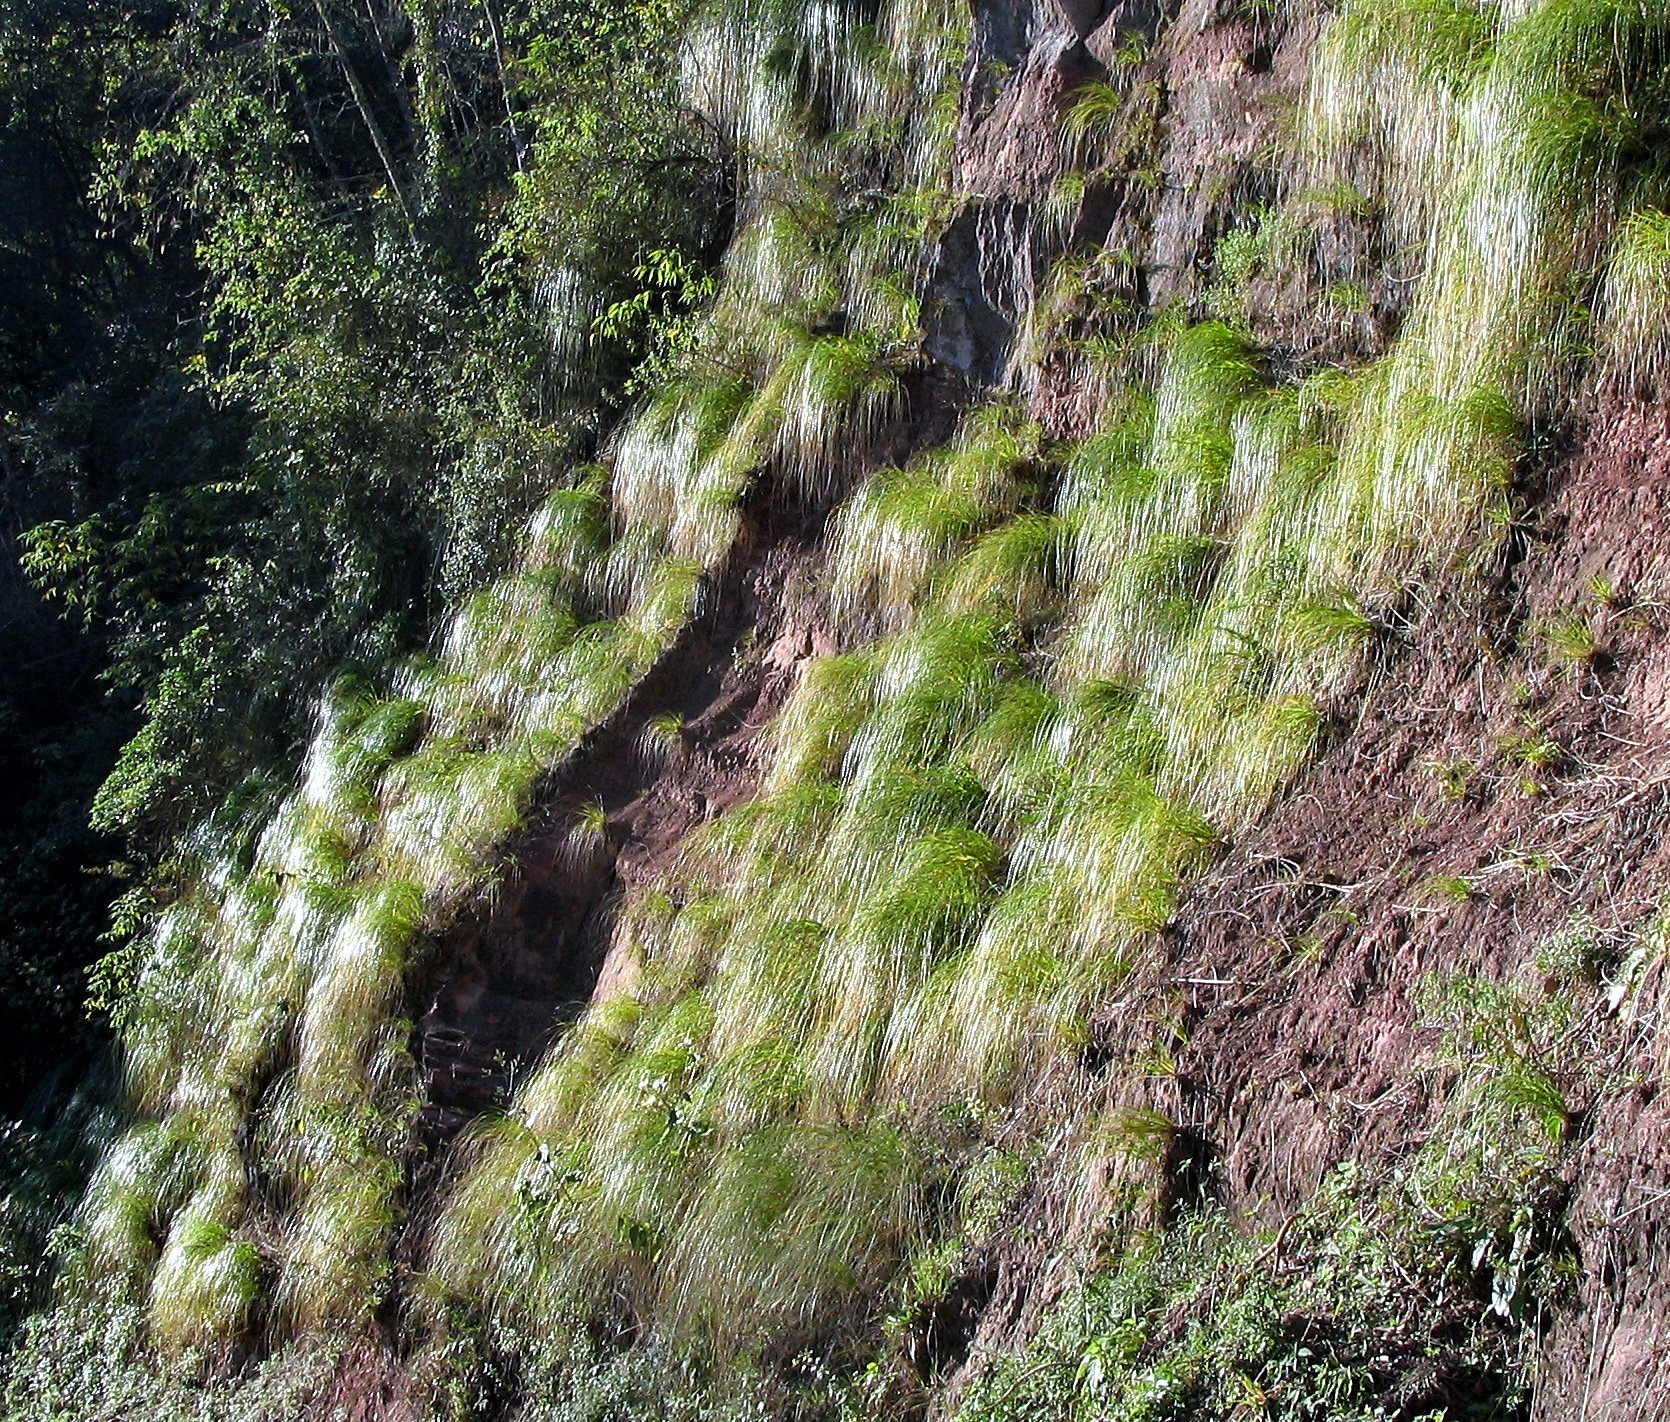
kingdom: Plantae
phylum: Tracheophyta
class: Liliopsida
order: Poales
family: Poaceae
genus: Cortaderia
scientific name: Cortaderia hieronymi
